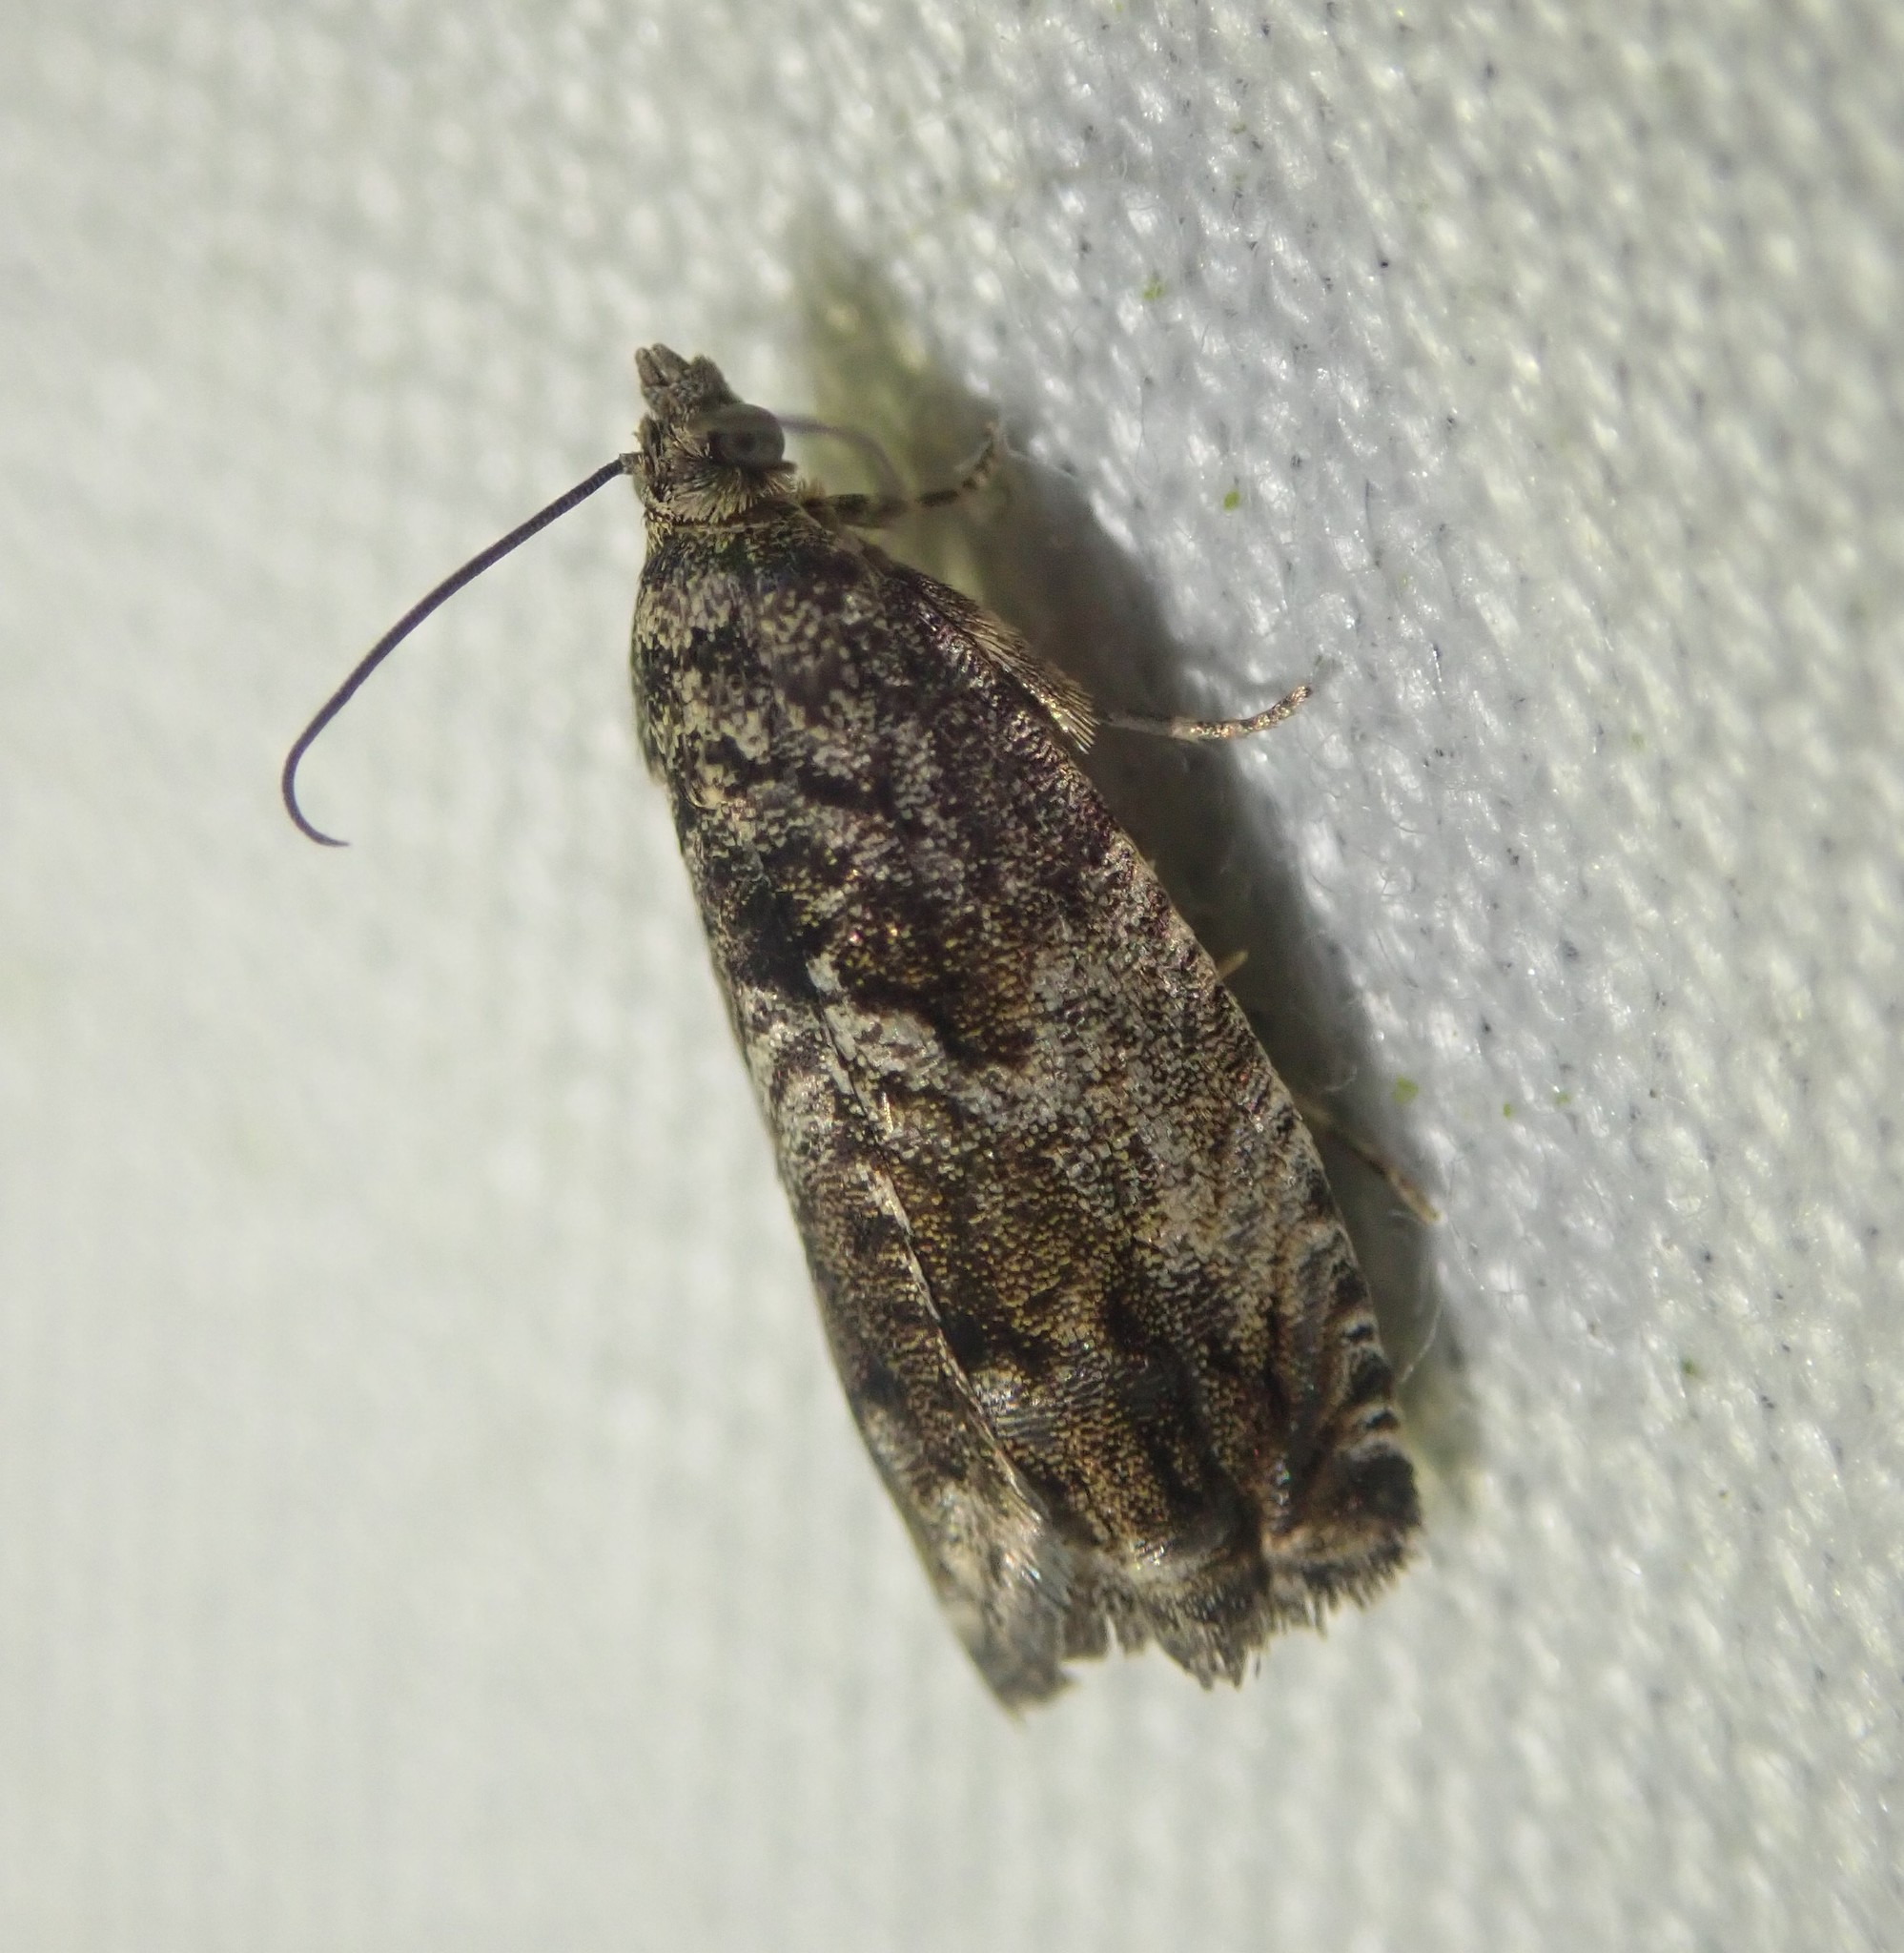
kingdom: Animalia
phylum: Arthropoda
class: Insecta
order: Lepidoptera
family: Tortricidae
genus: Cydia
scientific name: Cydia fagiglandana
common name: Large beech piercer
